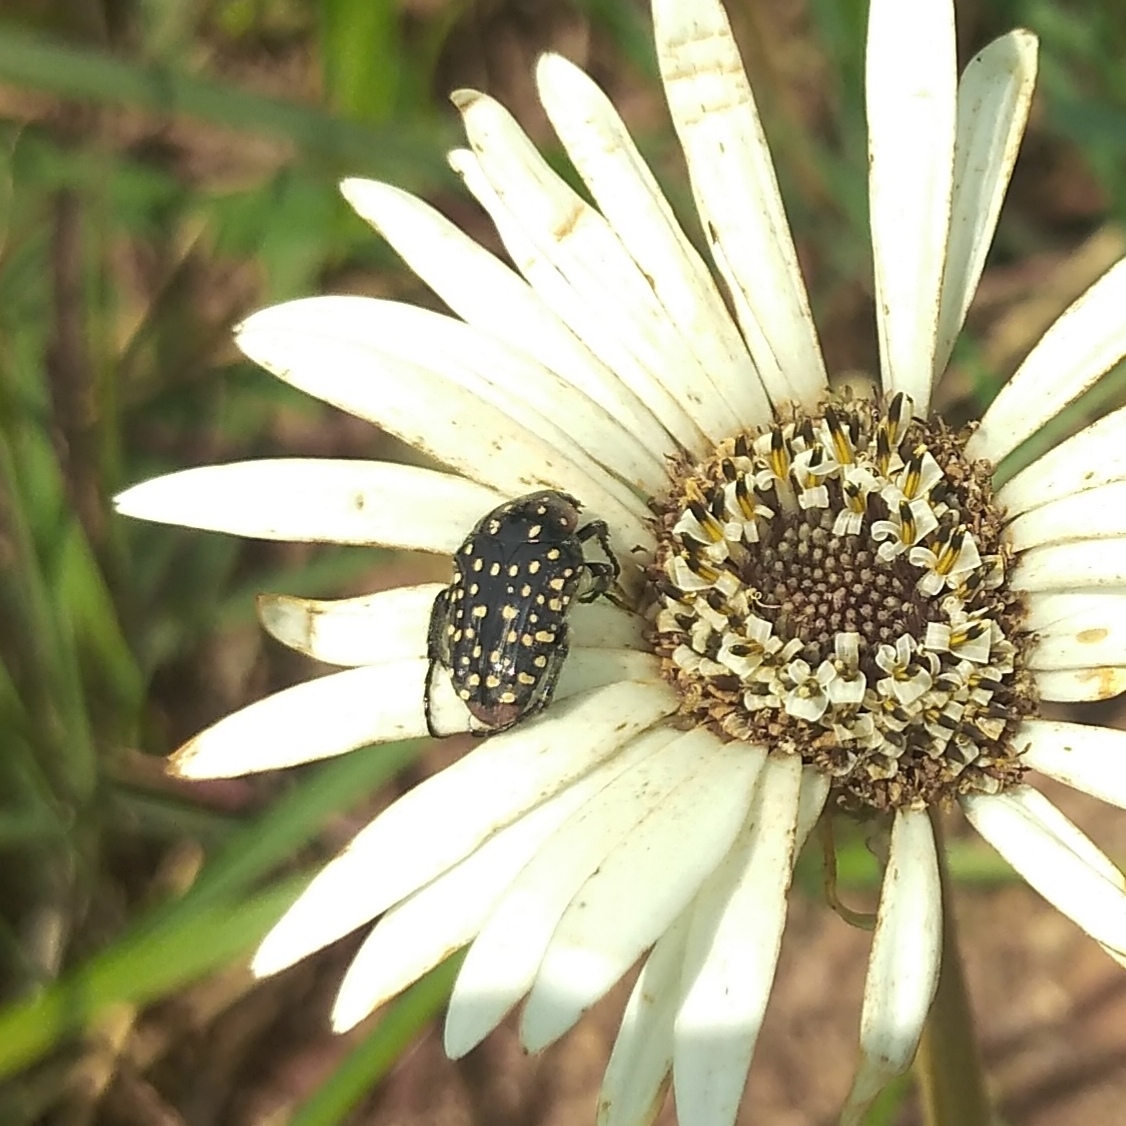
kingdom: Animalia
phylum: Arthropoda
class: Insecta
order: Coleoptera
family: Scarabaeidae
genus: Oxythyrea
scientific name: Oxythyrea
